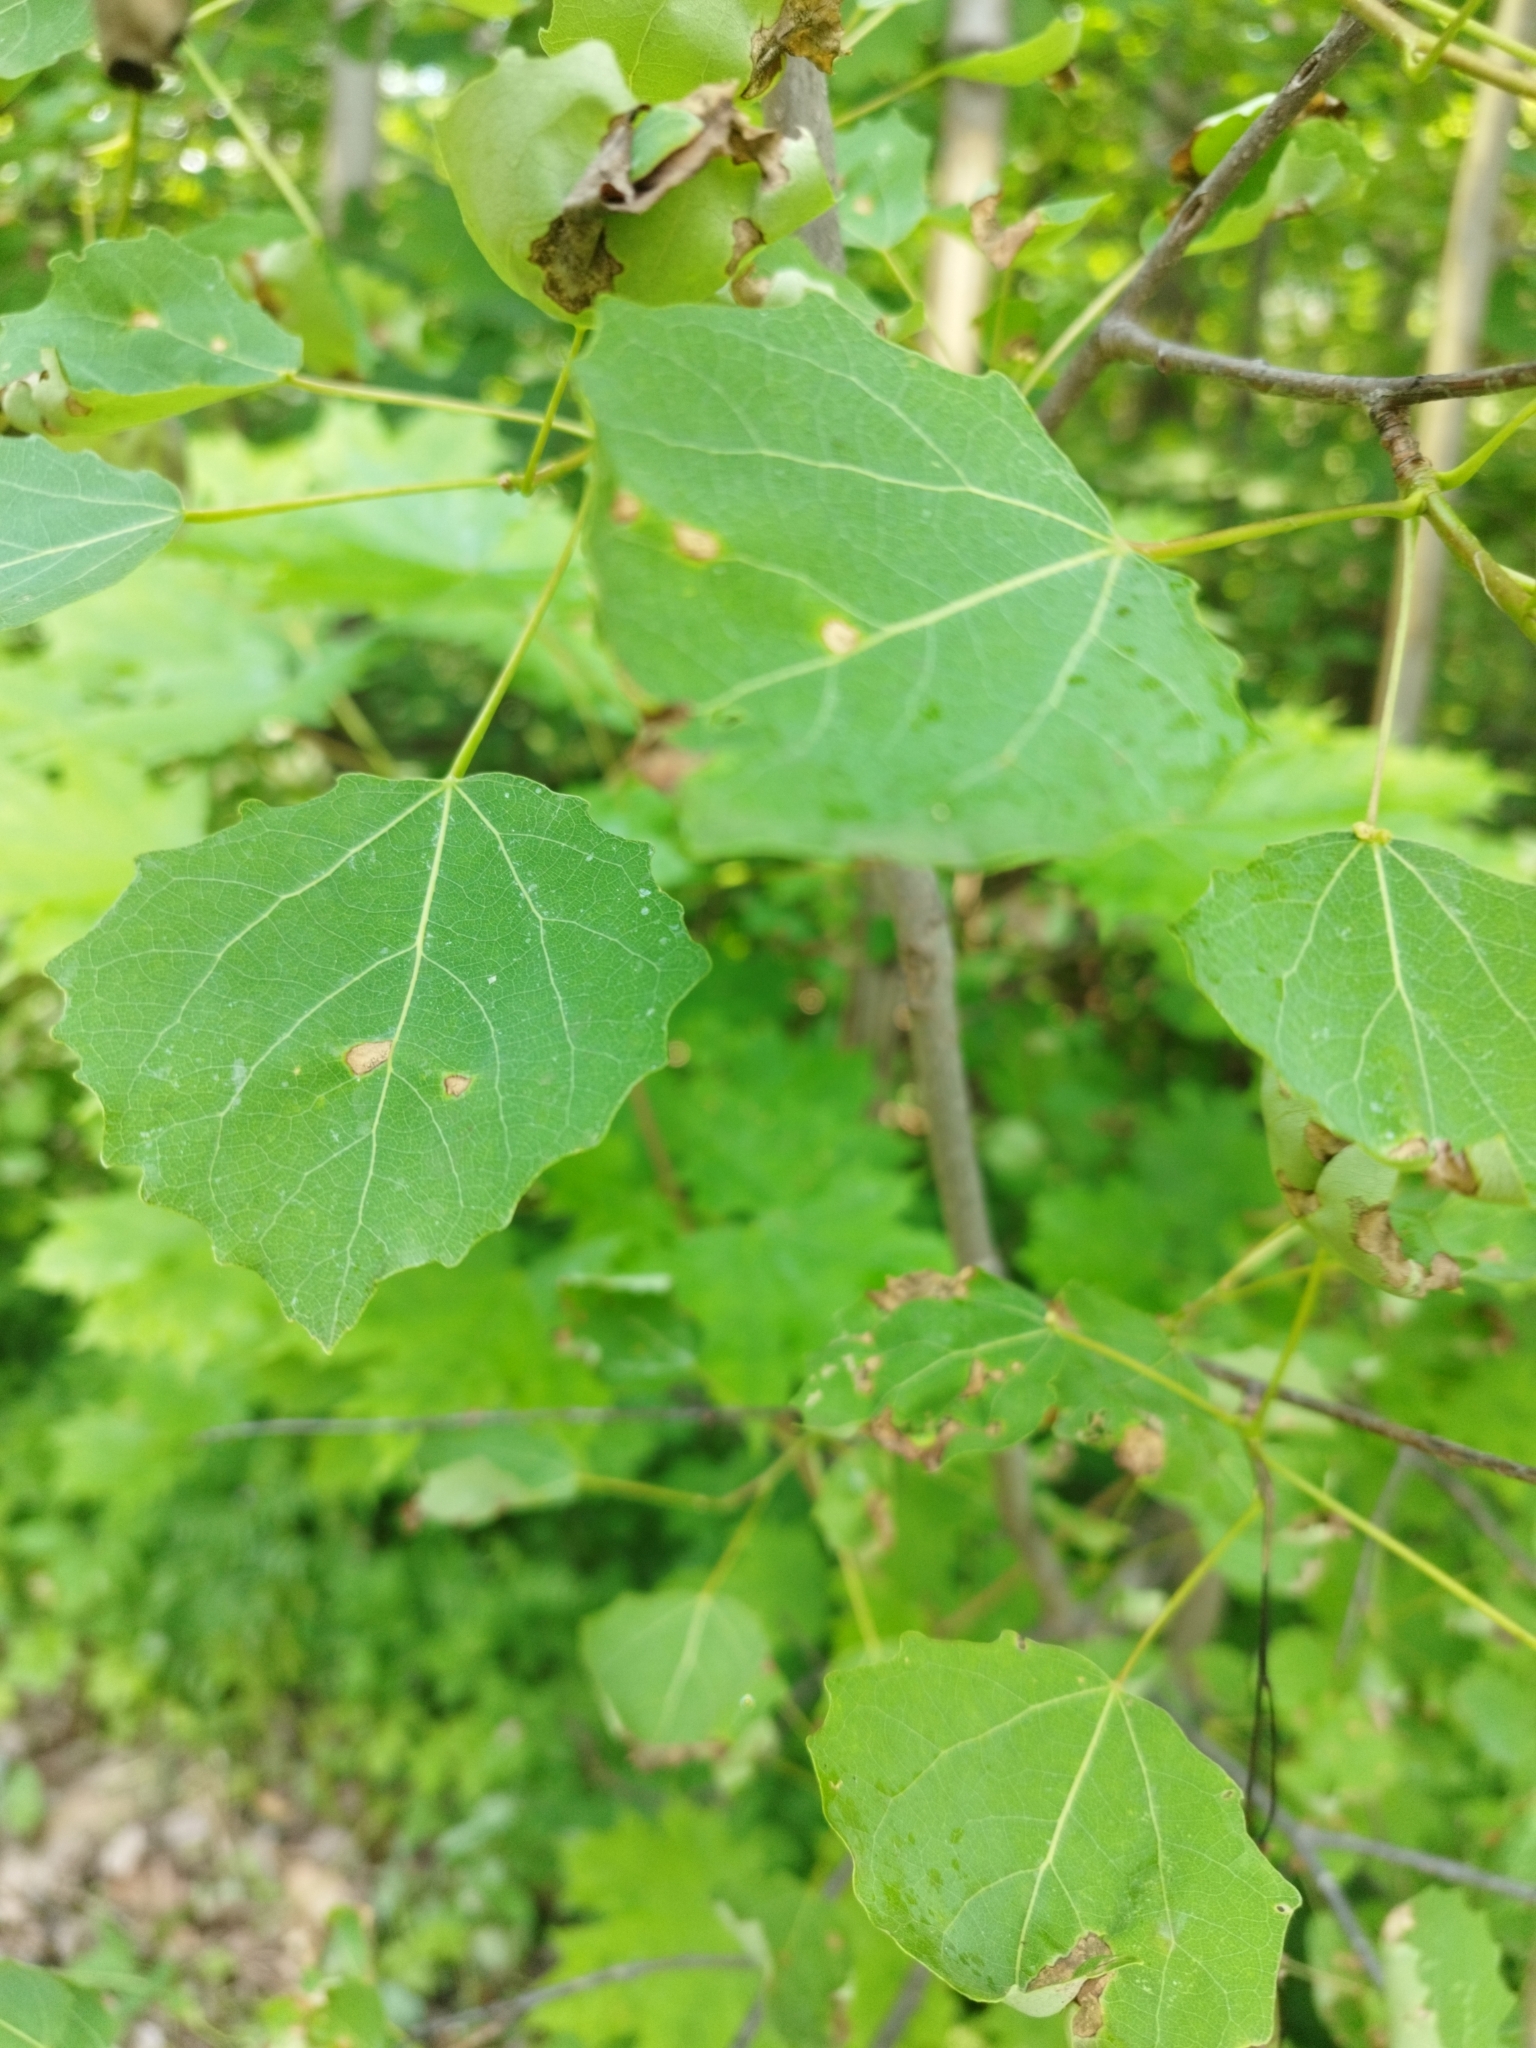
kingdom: Plantae
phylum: Tracheophyta
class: Magnoliopsida
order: Malpighiales
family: Salicaceae
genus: Populus
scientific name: Populus tremula
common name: European aspen
